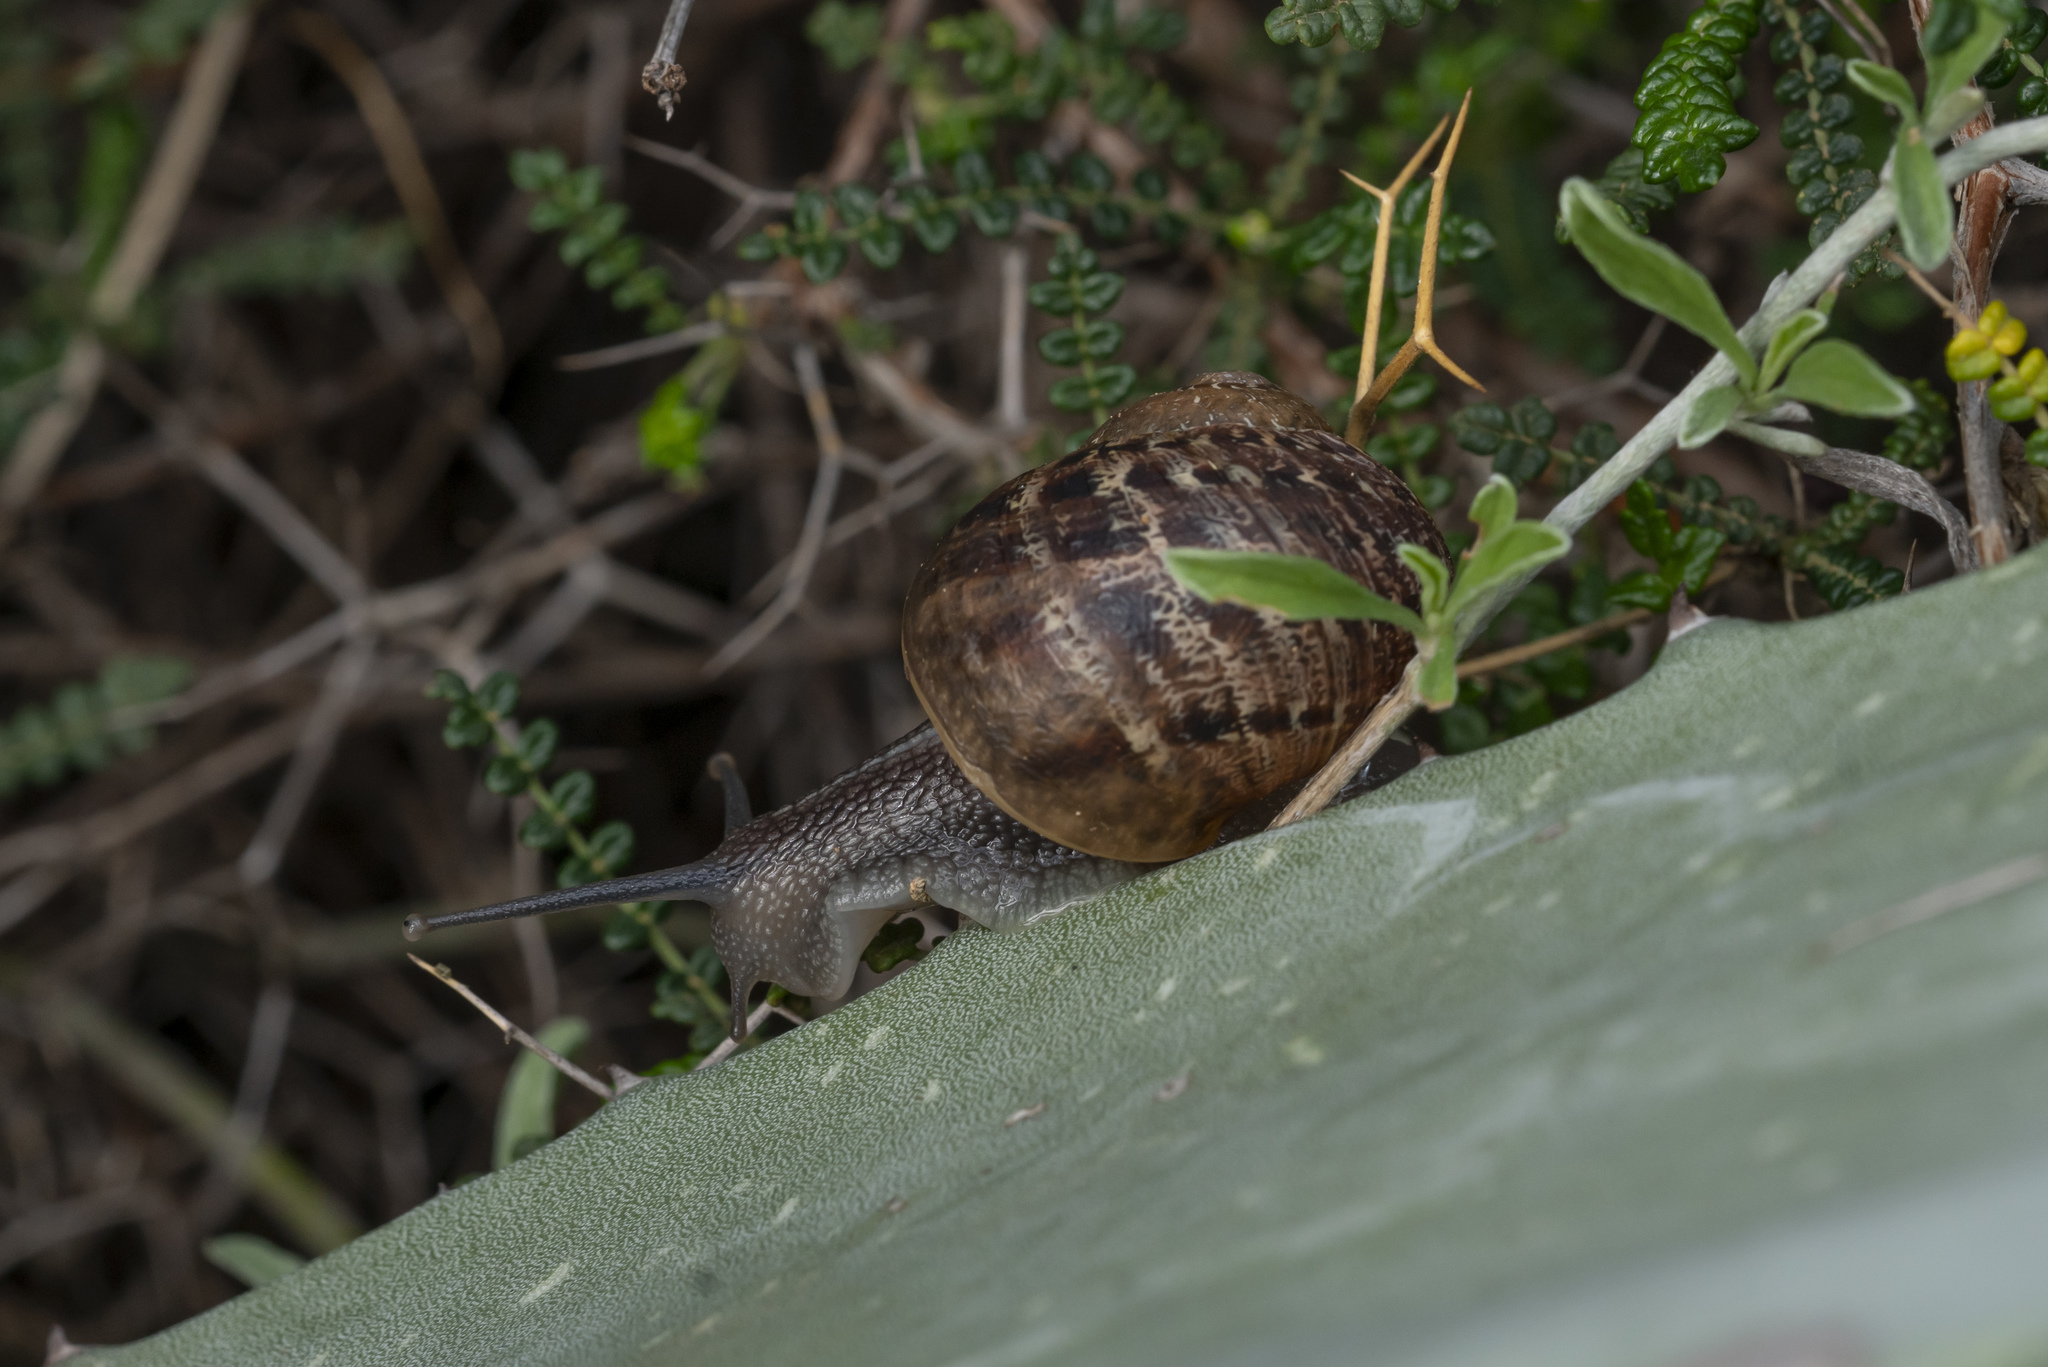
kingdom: Animalia
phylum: Mollusca
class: Gastropoda
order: Stylommatophora
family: Helicidae
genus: Cornu
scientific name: Cornu aspersum
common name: Brown garden snail
